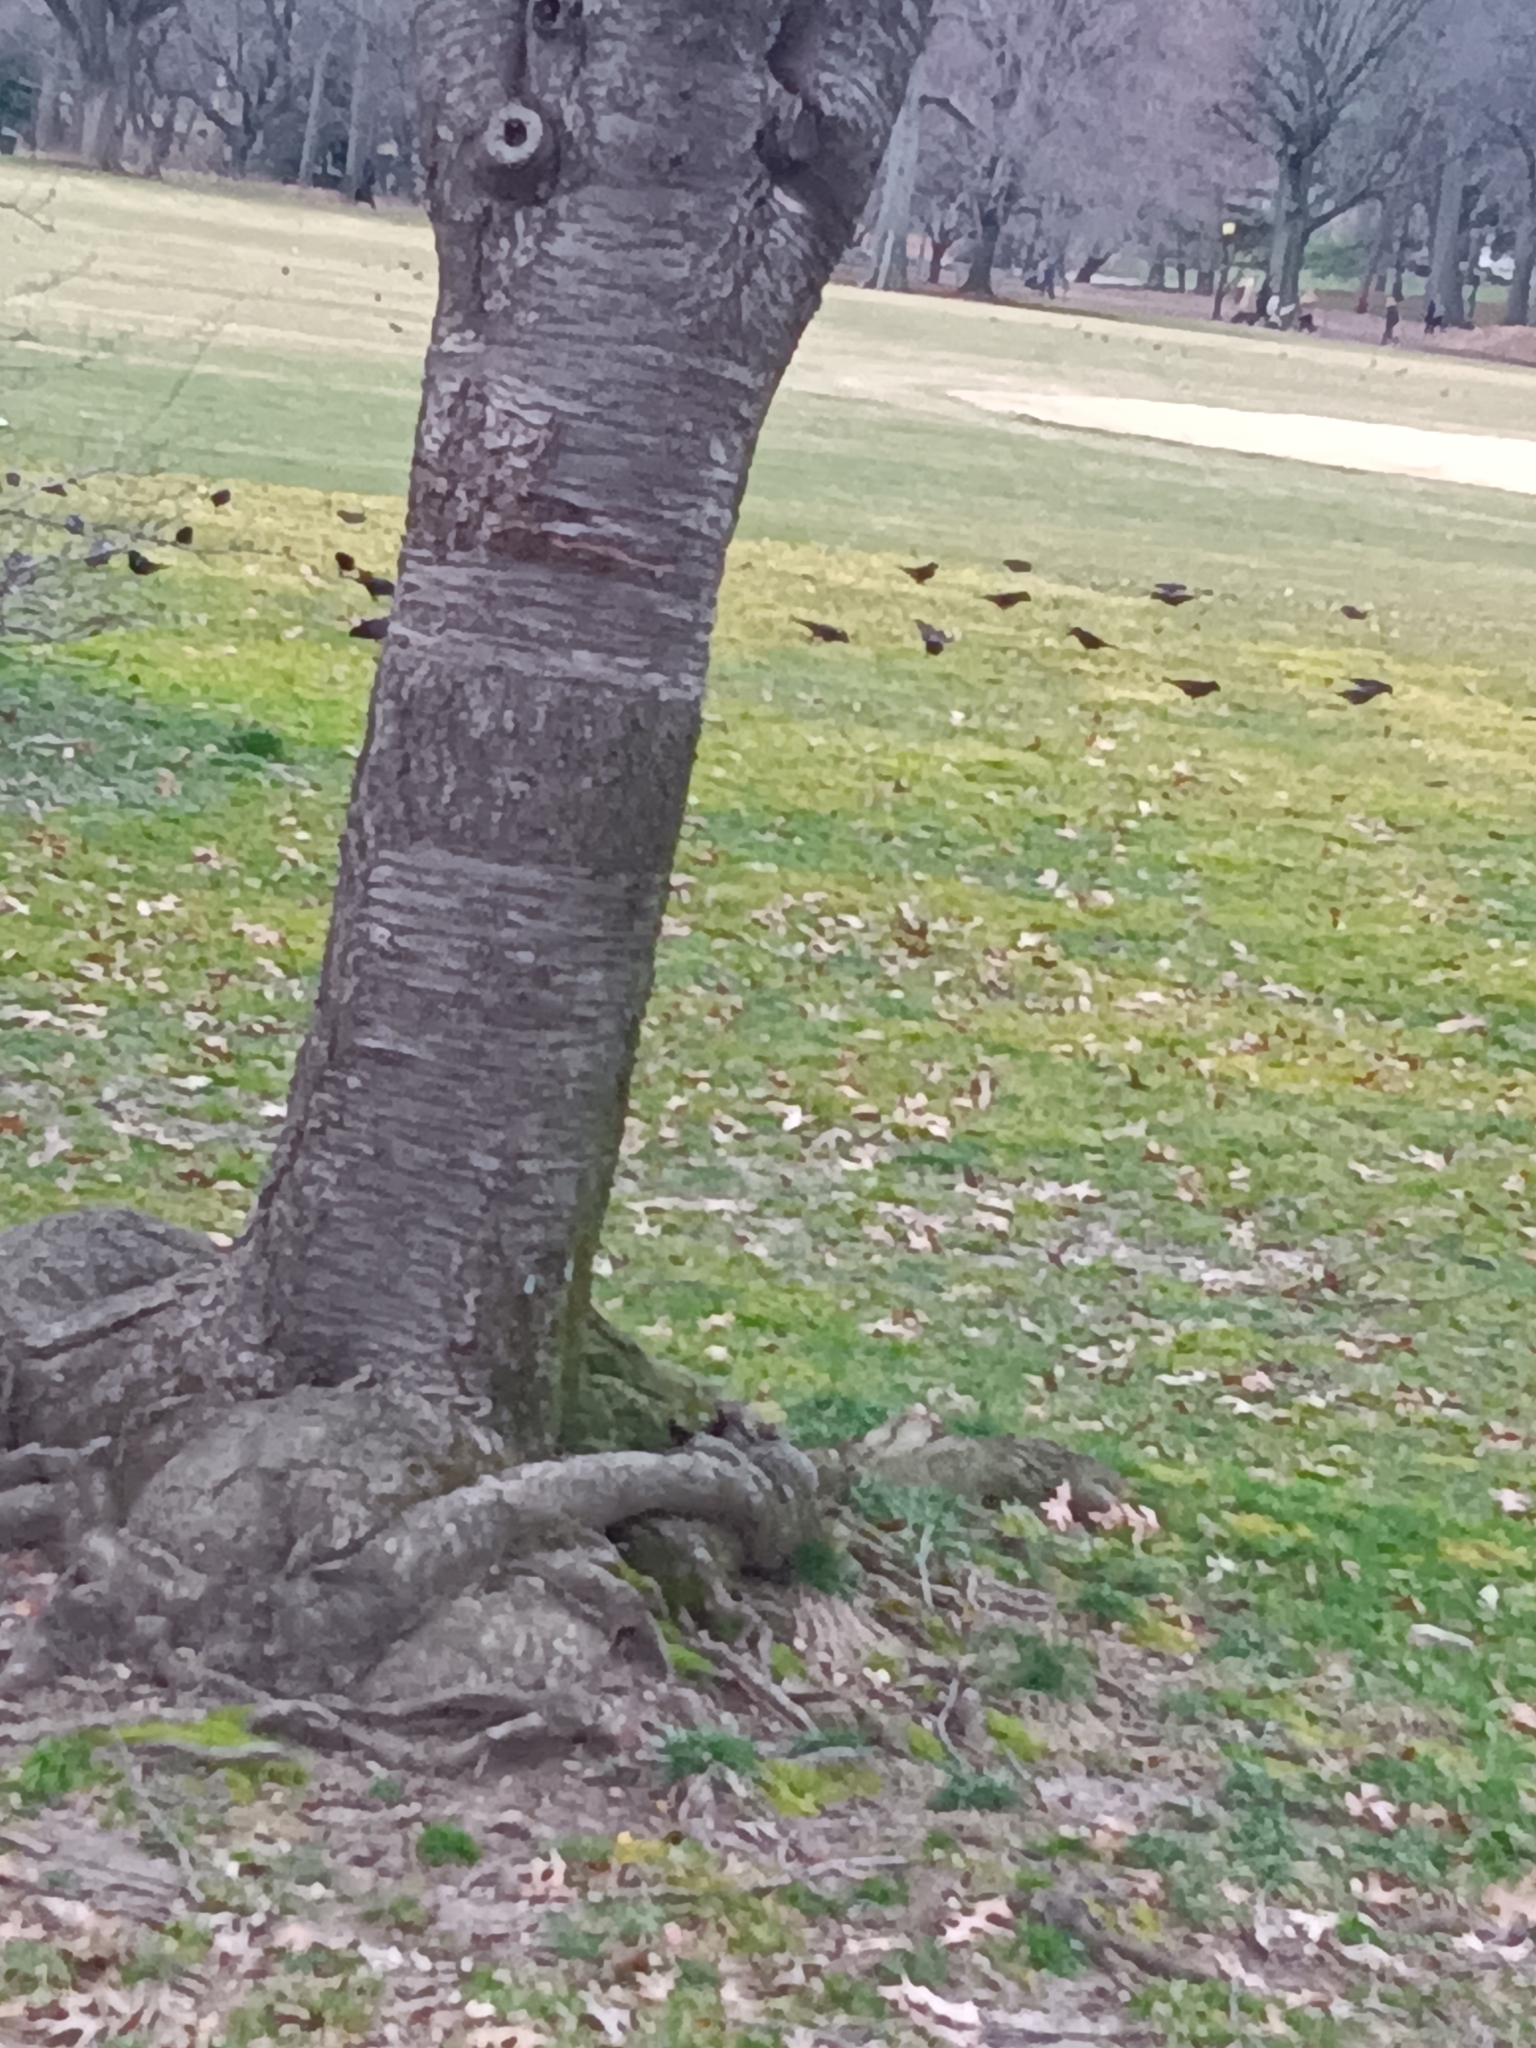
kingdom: Animalia
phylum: Chordata
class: Aves
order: Passeriformes
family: Icteridae
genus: Quiscalus
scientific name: Quiscalus quiscula
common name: Common grackle
